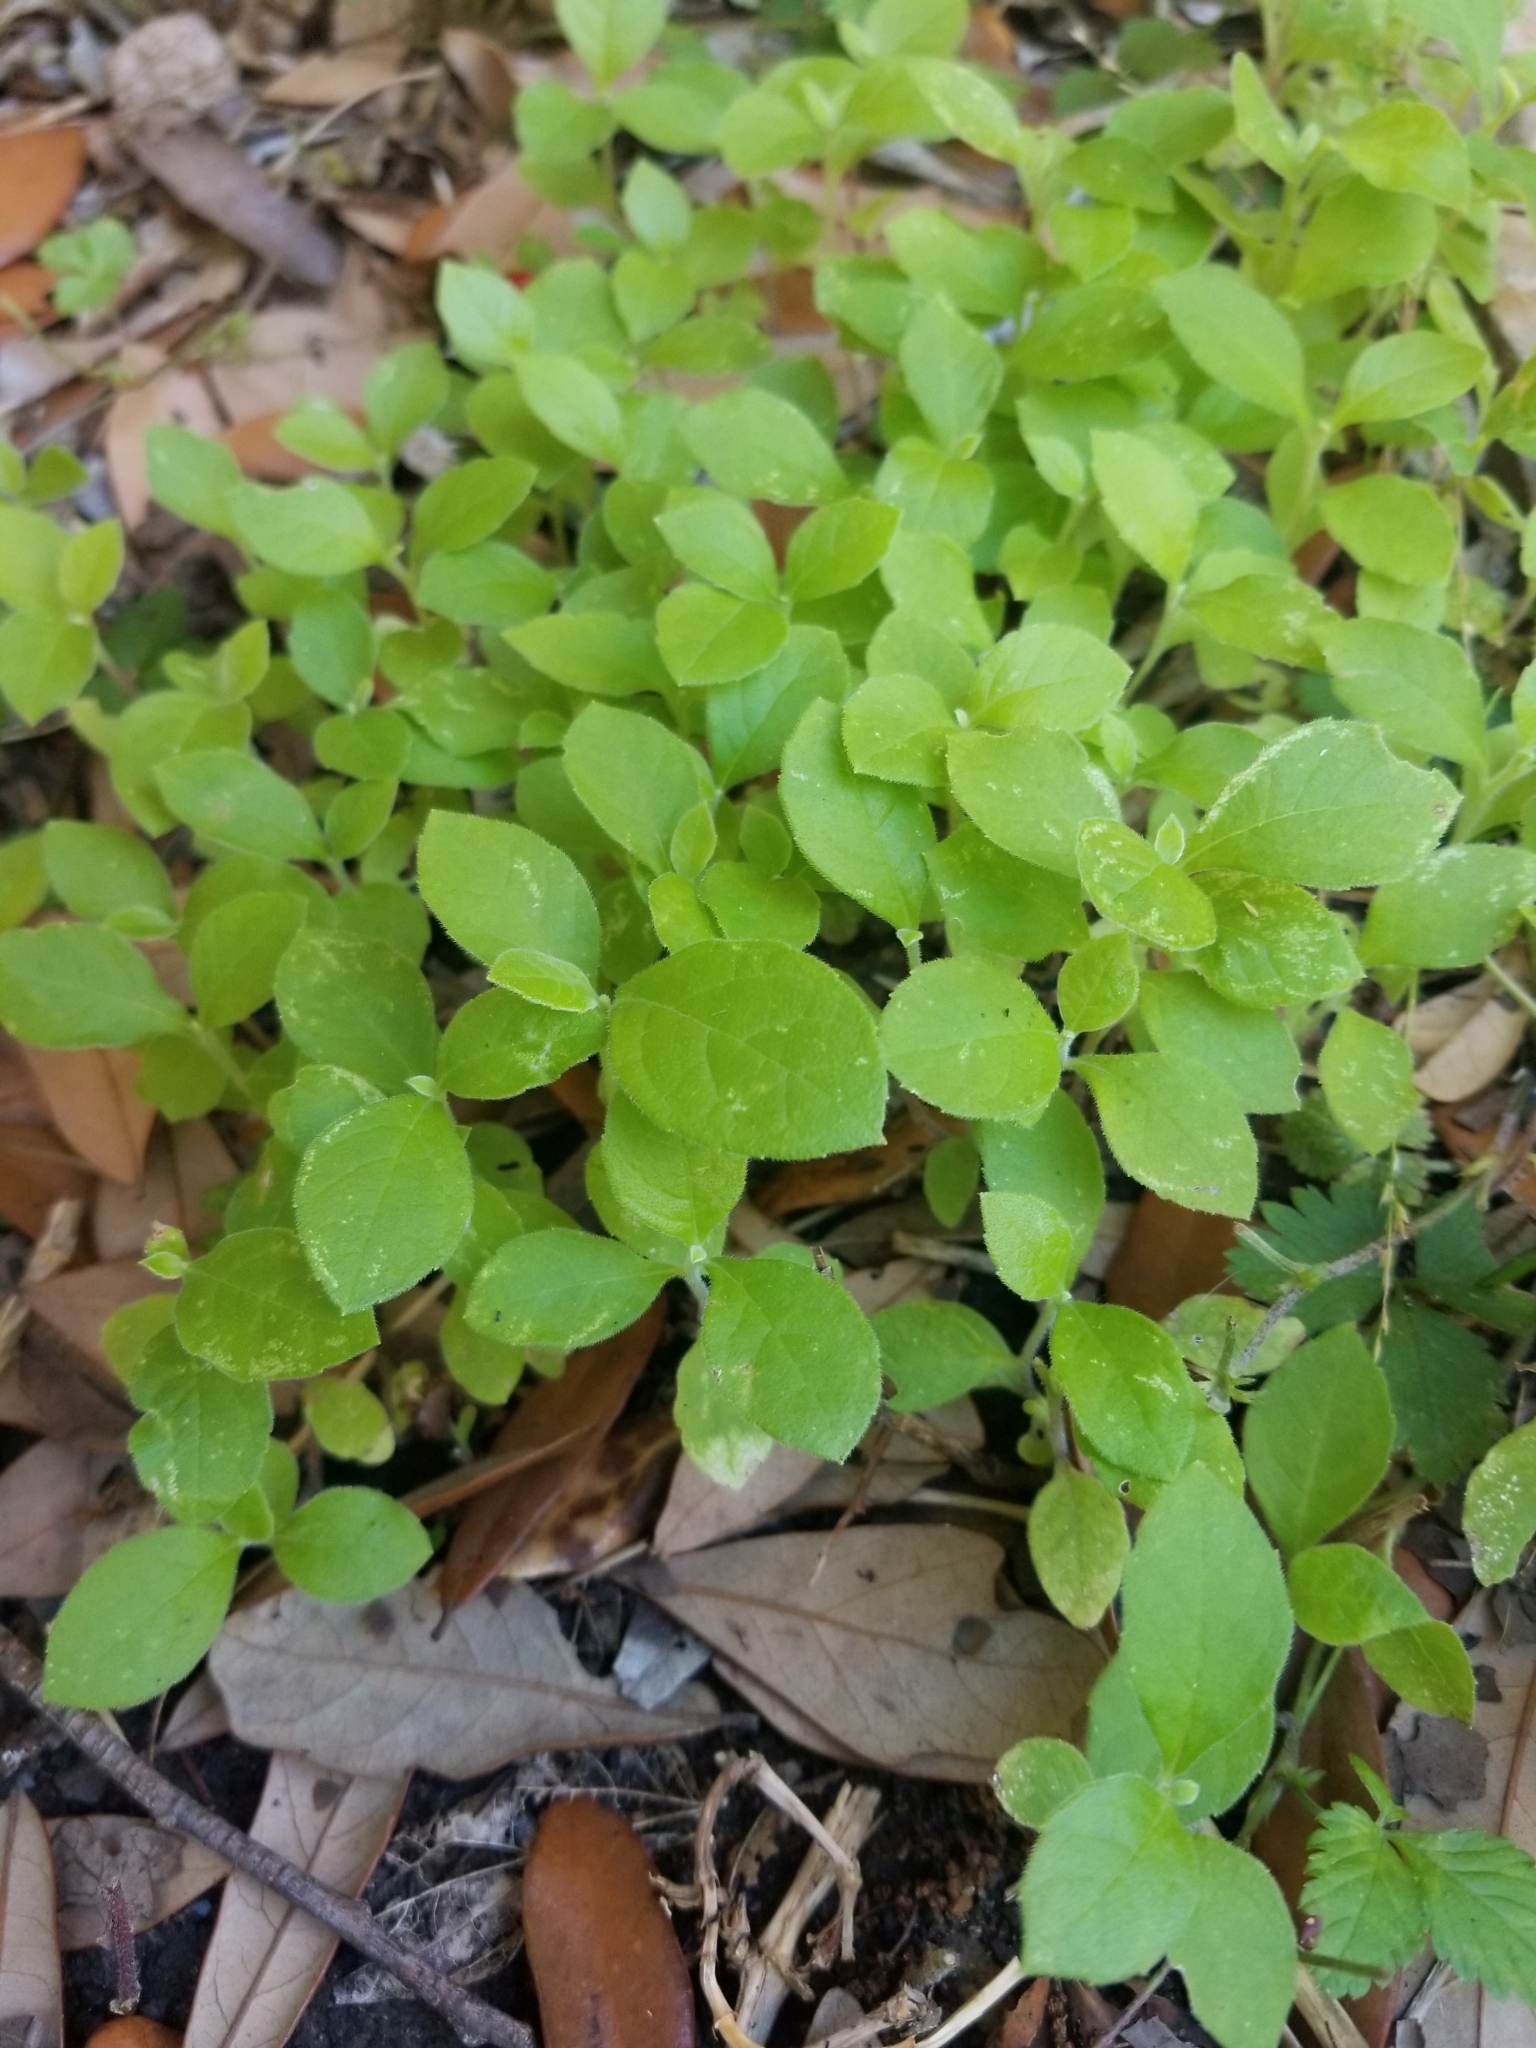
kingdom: Plantae
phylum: Tracheophyta
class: Magnoliopsida
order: Asterales
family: Asteraceae
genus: Calyptocarpus
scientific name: Calyptocarpus vialis
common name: Straggler daisy
